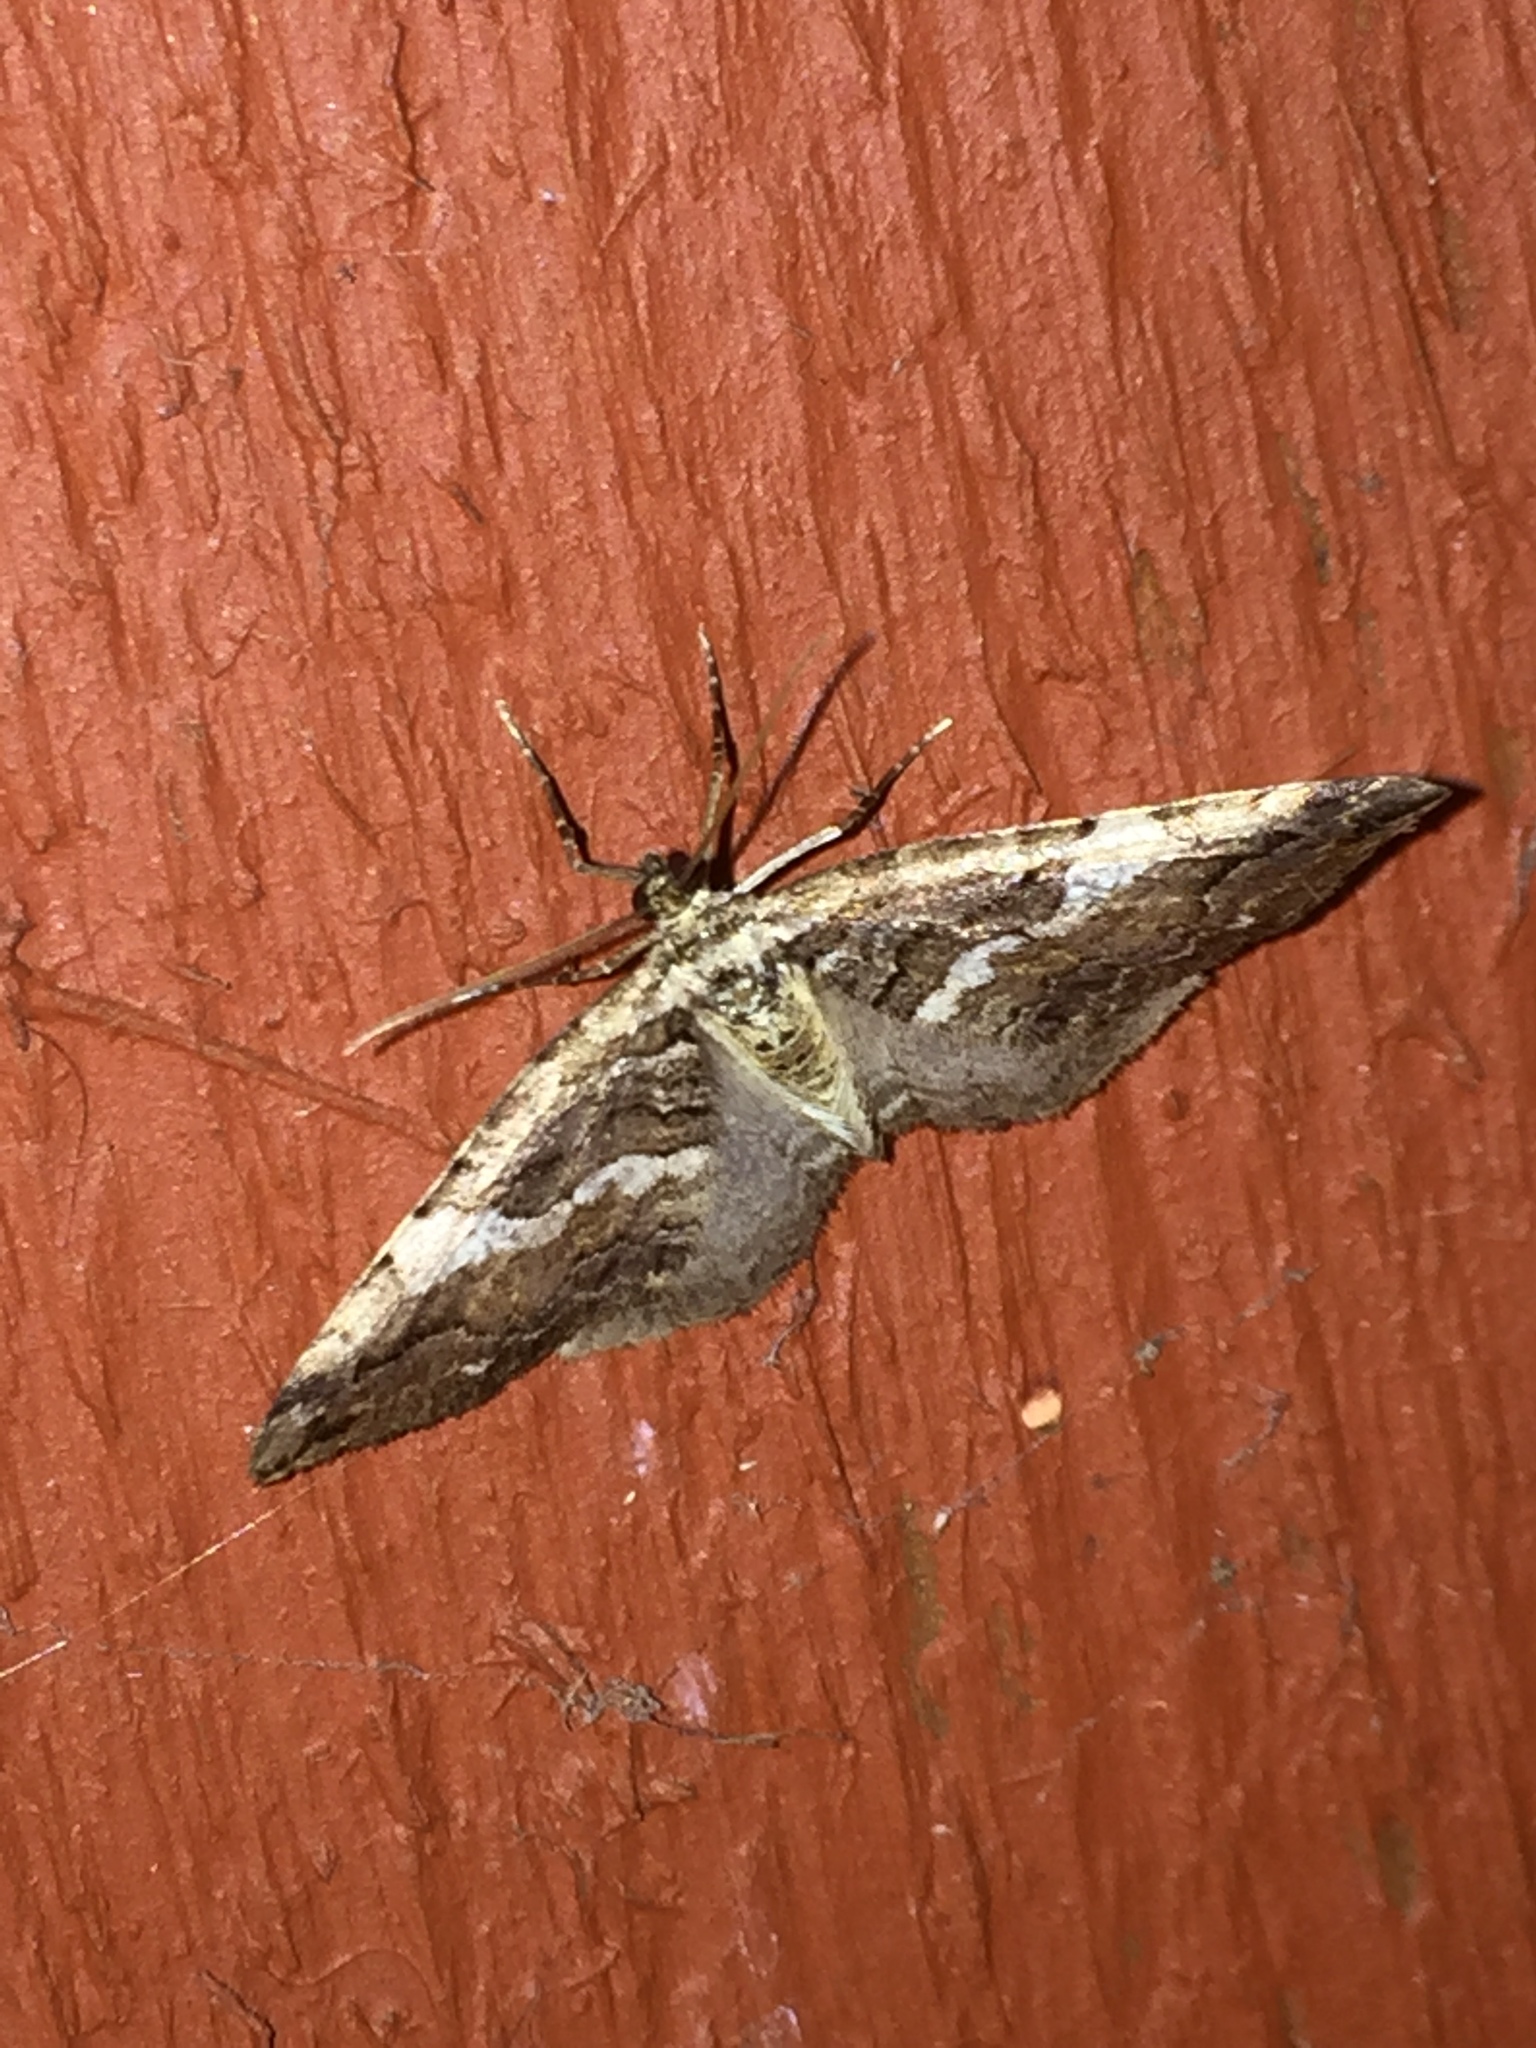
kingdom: Animalia
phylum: Arthropoda
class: Insecta
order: Lepidoptera
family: Geometridae
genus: Anticlea
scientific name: Anticlea vasiliata
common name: Variable carpet
